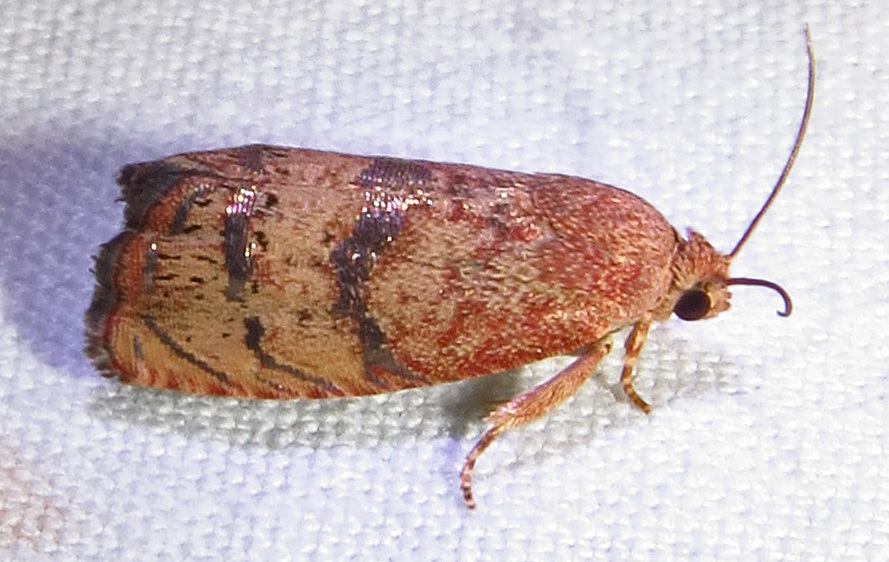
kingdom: Animalia
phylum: Arthropoda
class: Insecta
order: Lepidoptera
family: Tortricidae
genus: Cydia
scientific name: Cydia latiferreana
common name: Filbertworm moth
